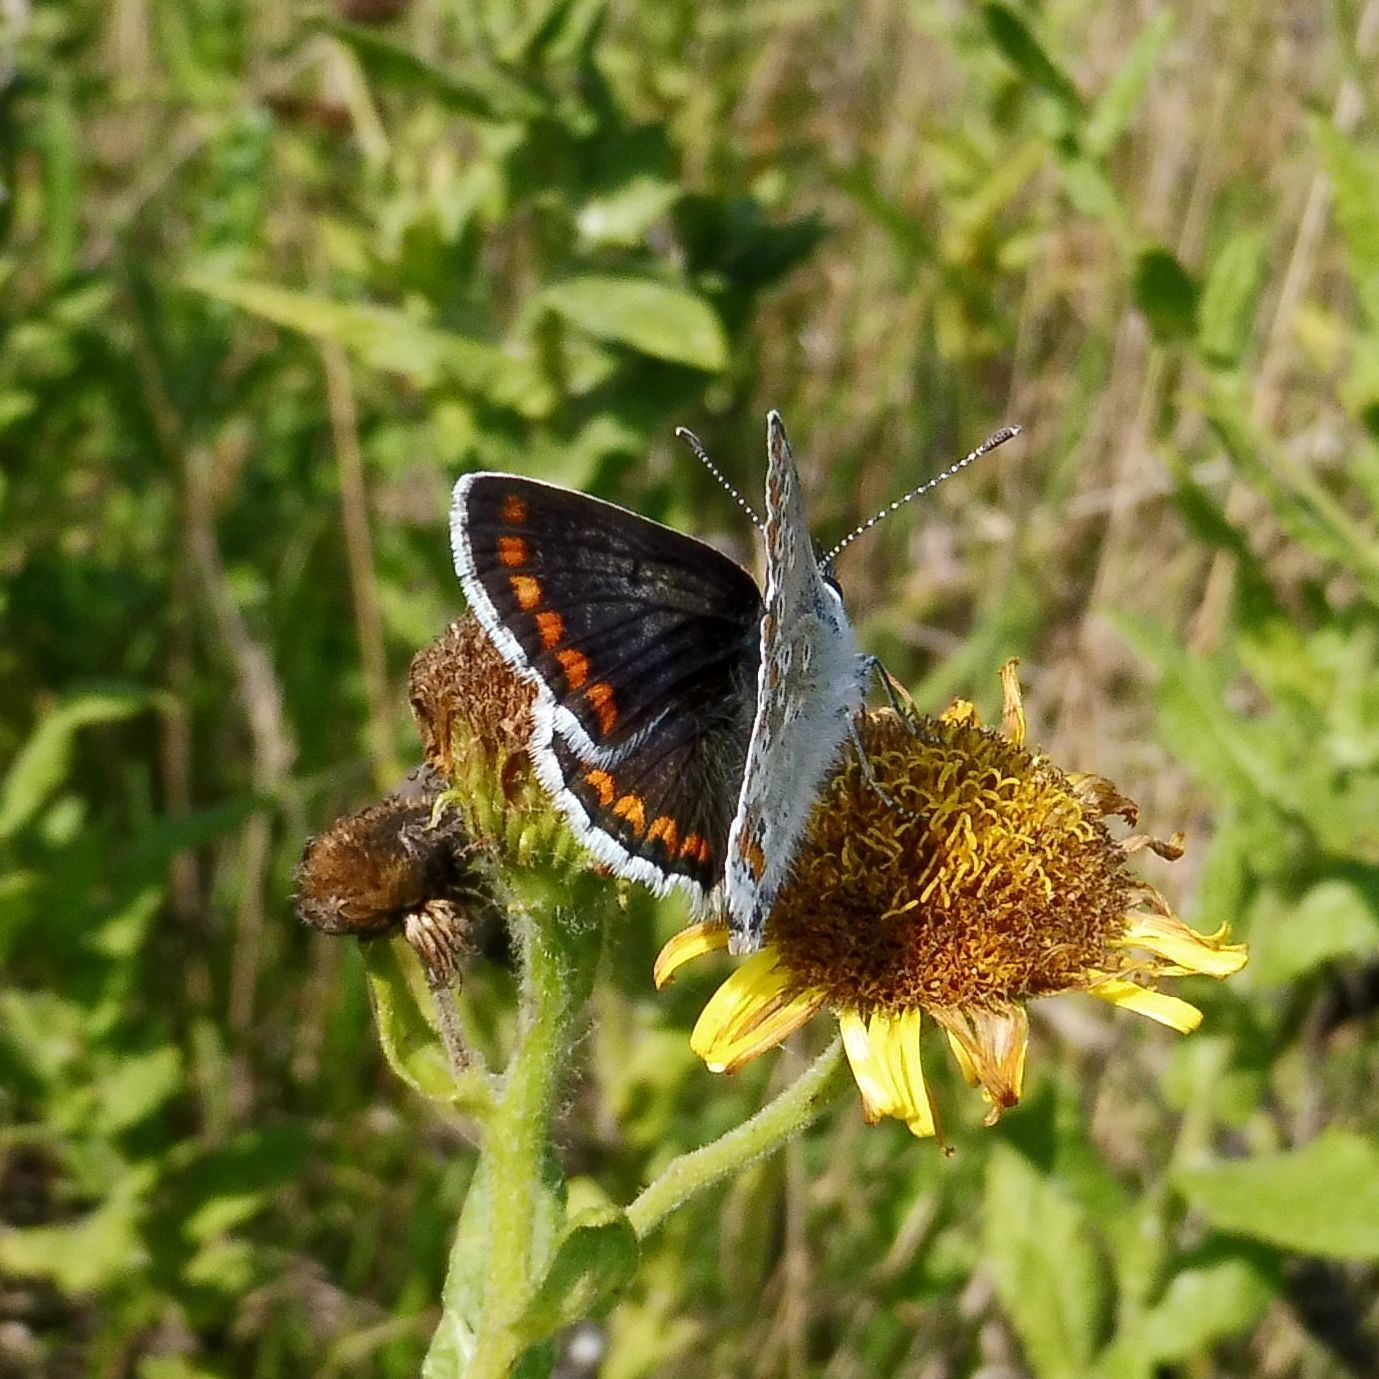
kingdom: Animalia
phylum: Arthropoda
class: Insecta
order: Lepidoptera
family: Lycaenidae
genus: Aricia
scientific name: Aricia agestis
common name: Brown argus
